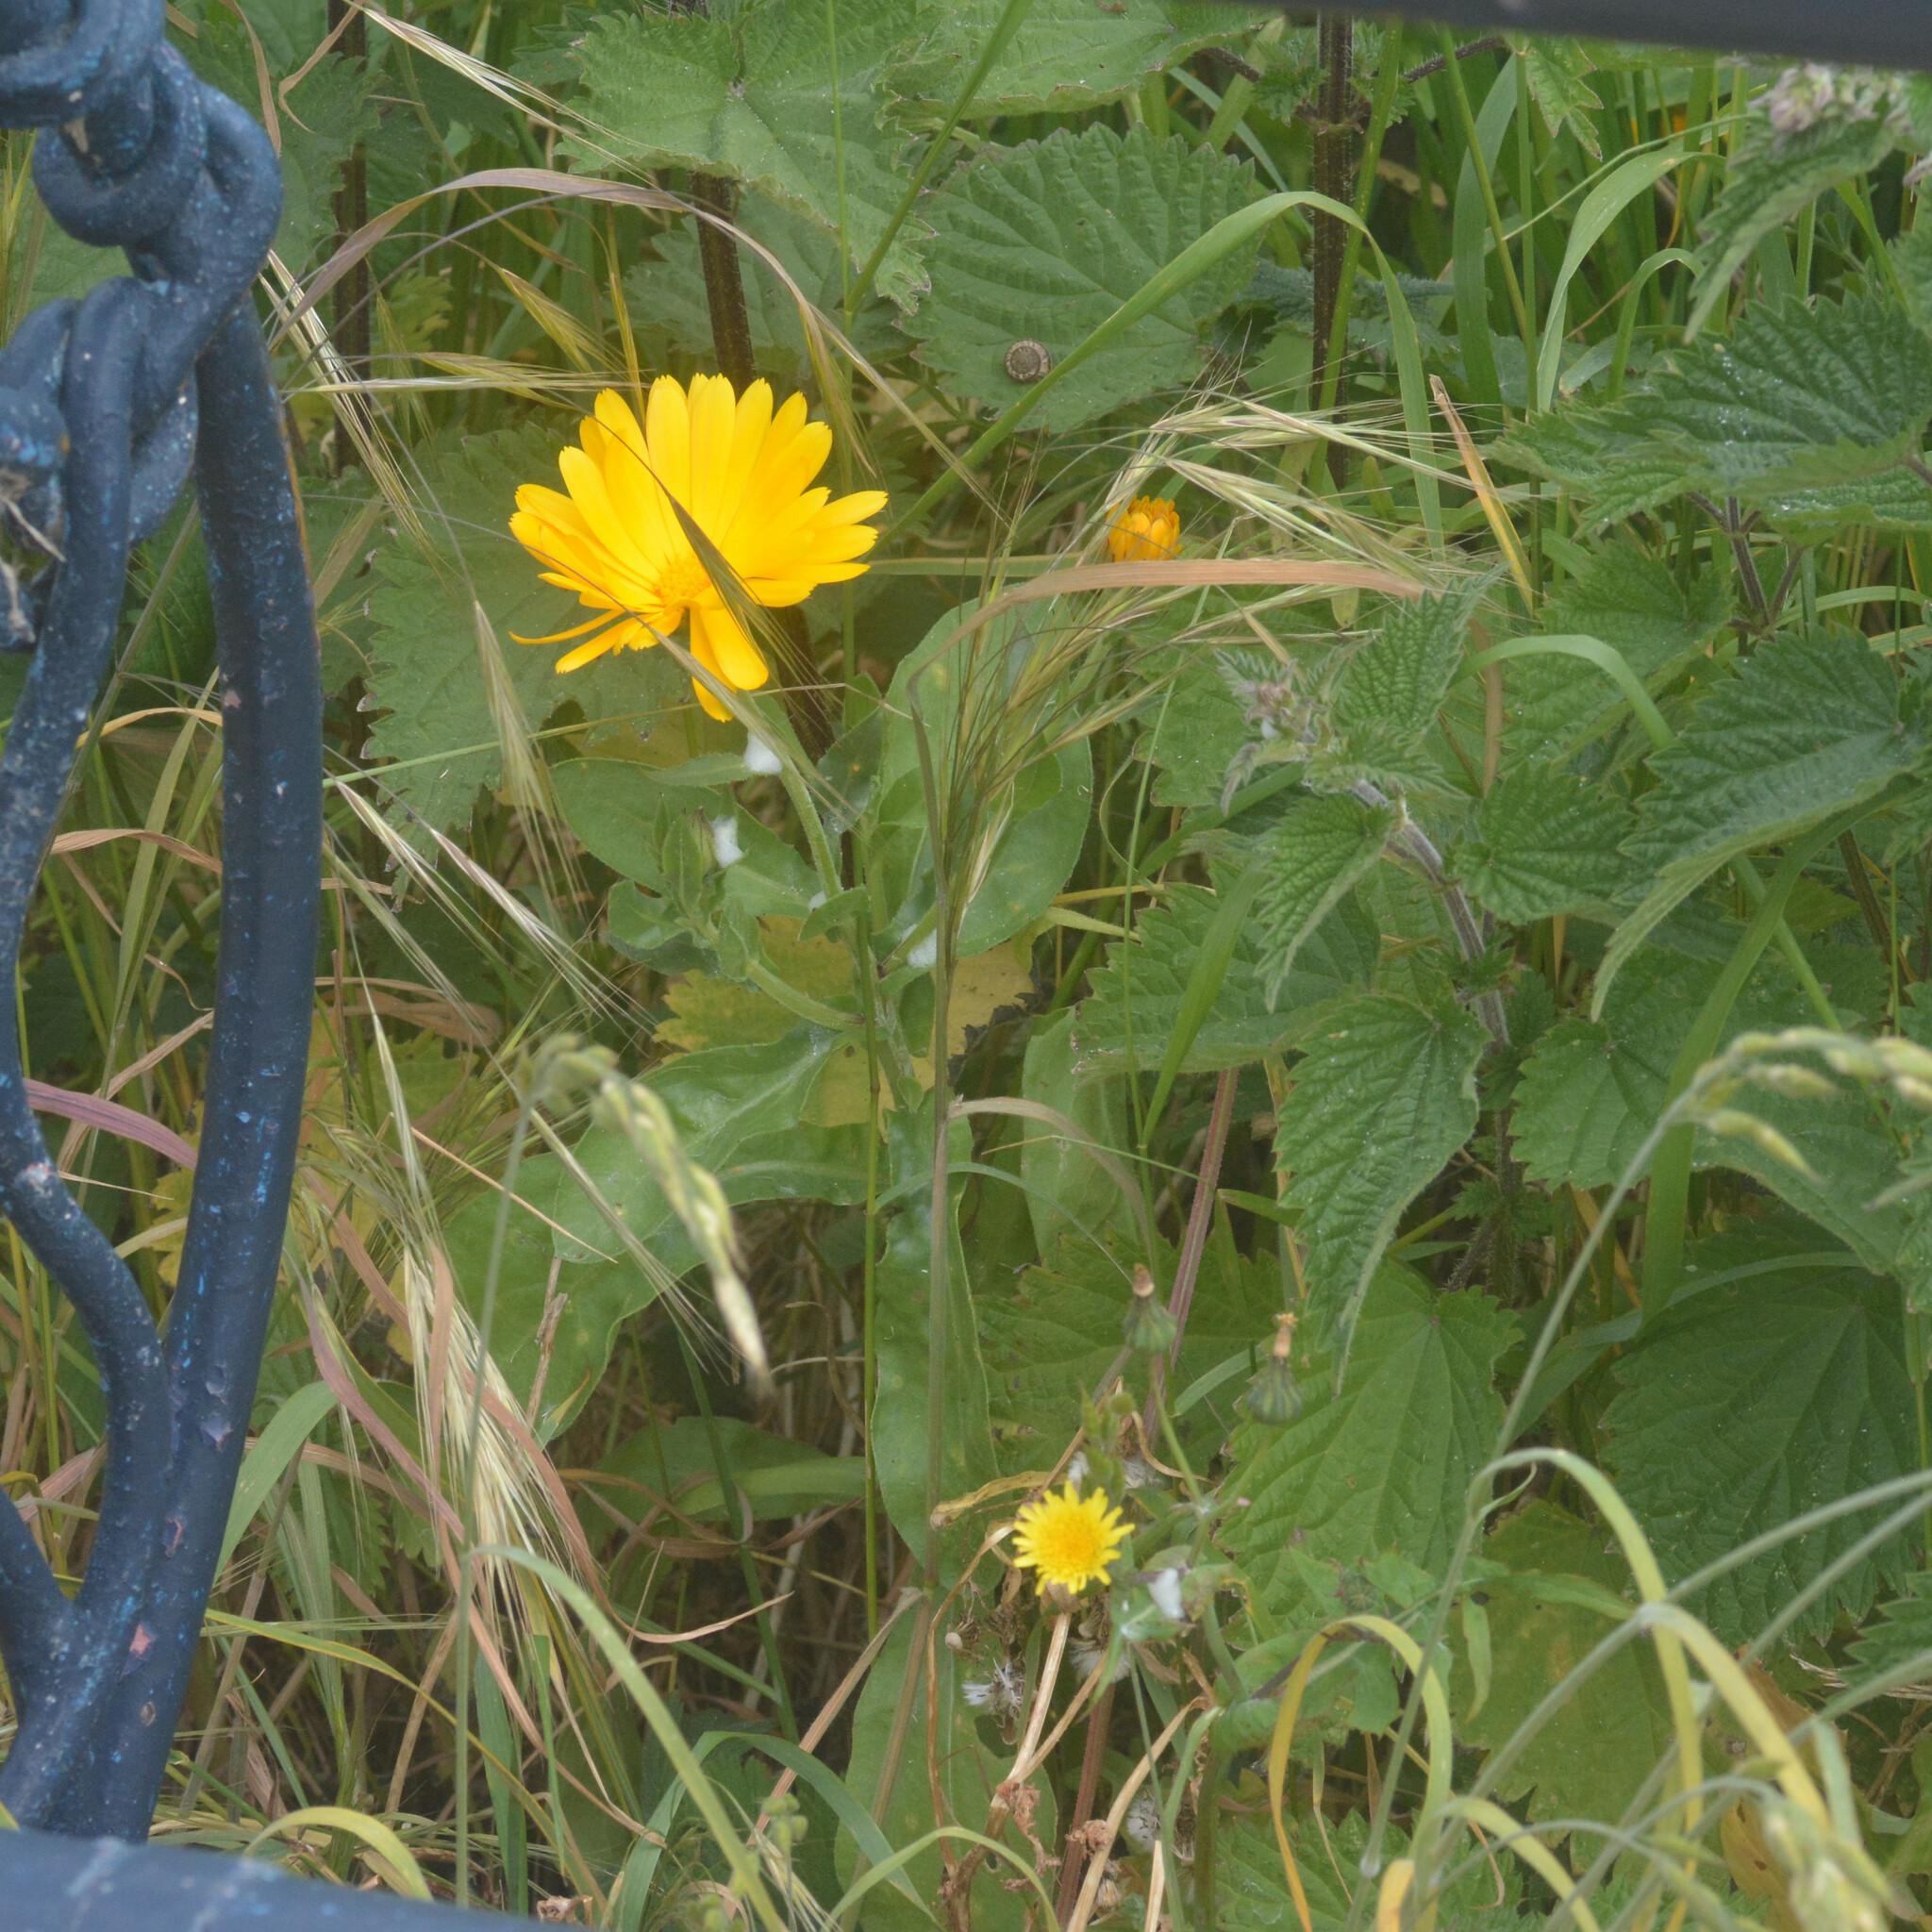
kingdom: Plantae
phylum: Tracheophyta
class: Magnoliopsida
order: Asterales
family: Asteraceae
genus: Calendula
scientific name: Calendula officinalis
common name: Pot marigold
